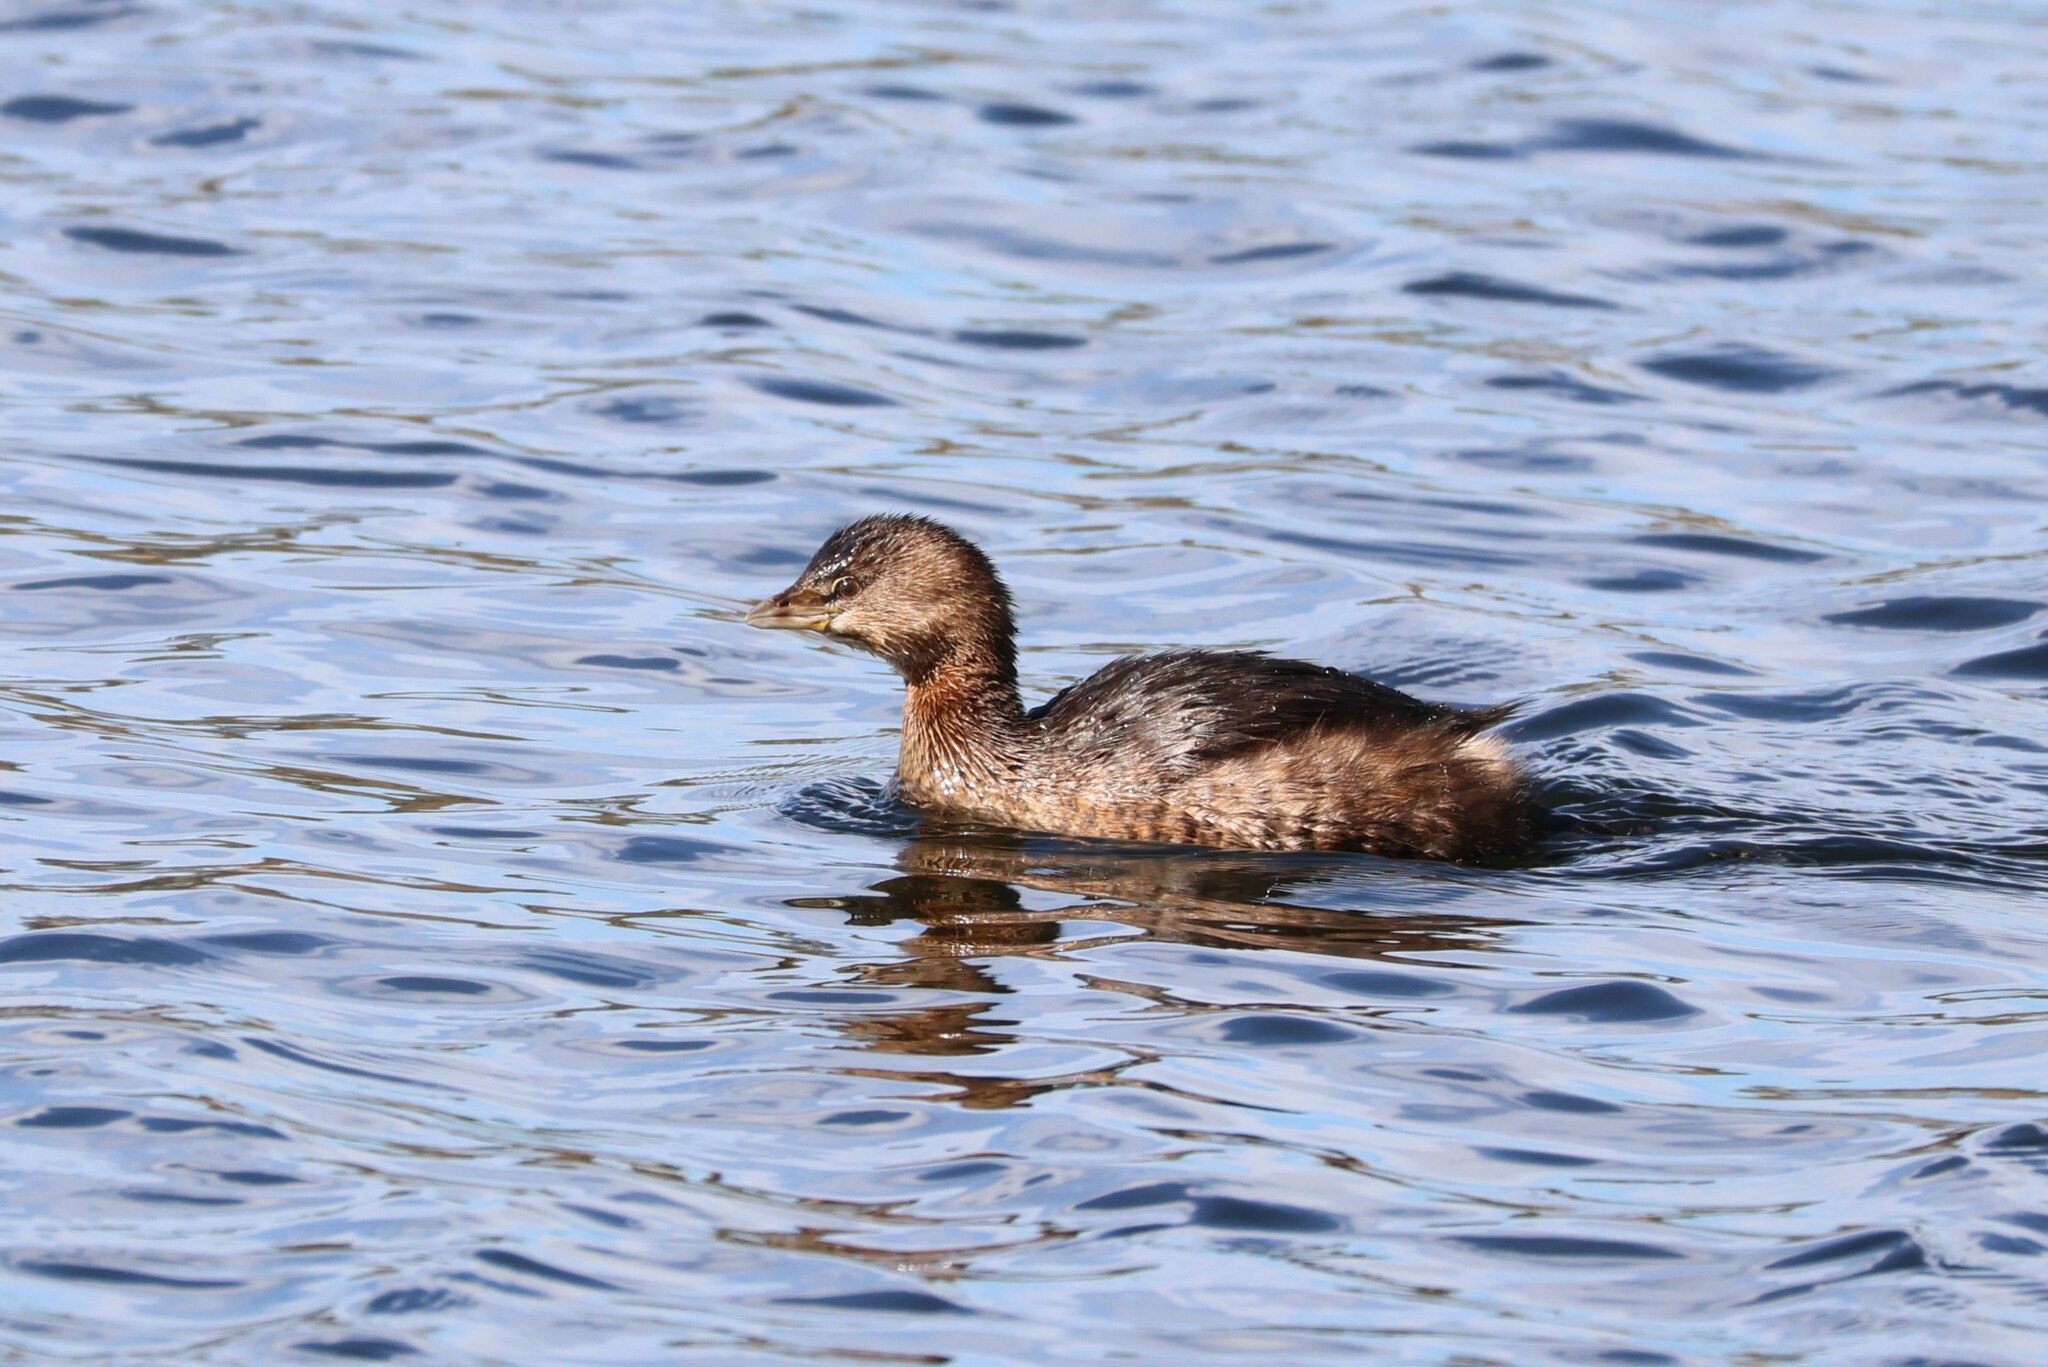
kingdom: Animalia
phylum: Chordata
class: Aves
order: Podicipediformes
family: Podicipedidae
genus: Podilymbus
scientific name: Podilymbus podiceps
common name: Pied-billed grebe
